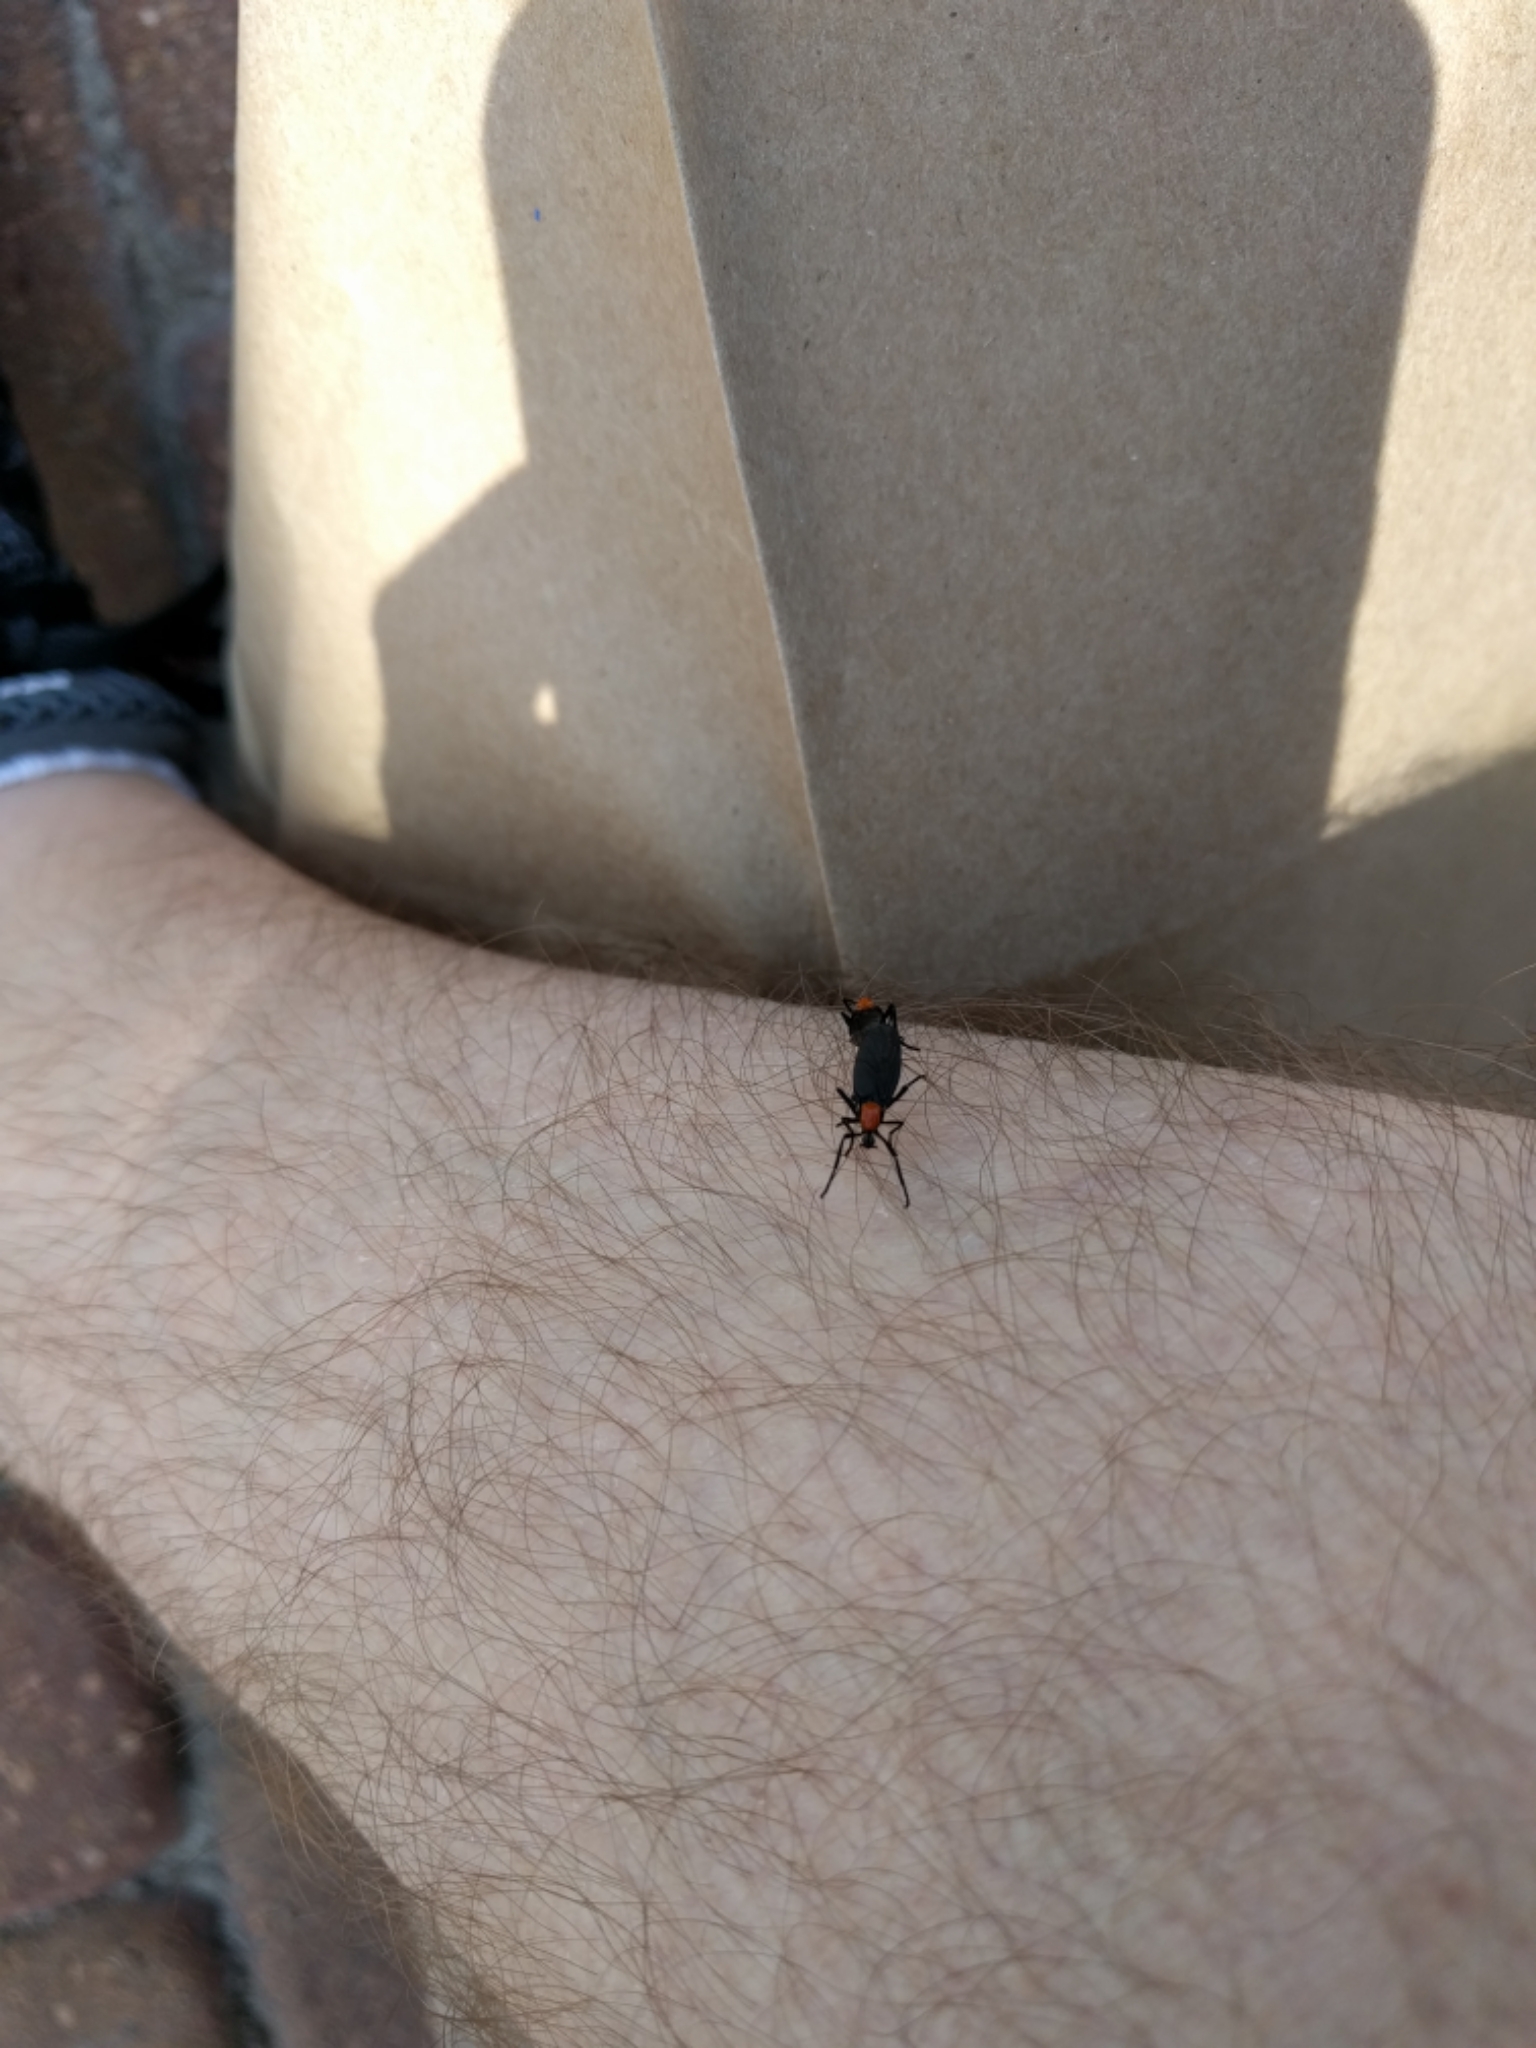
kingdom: Animalia
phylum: Arthropoda
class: Insecta
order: Diptera
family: Bibionidae
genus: Plecia
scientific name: Plecia nearctica
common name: March fly
